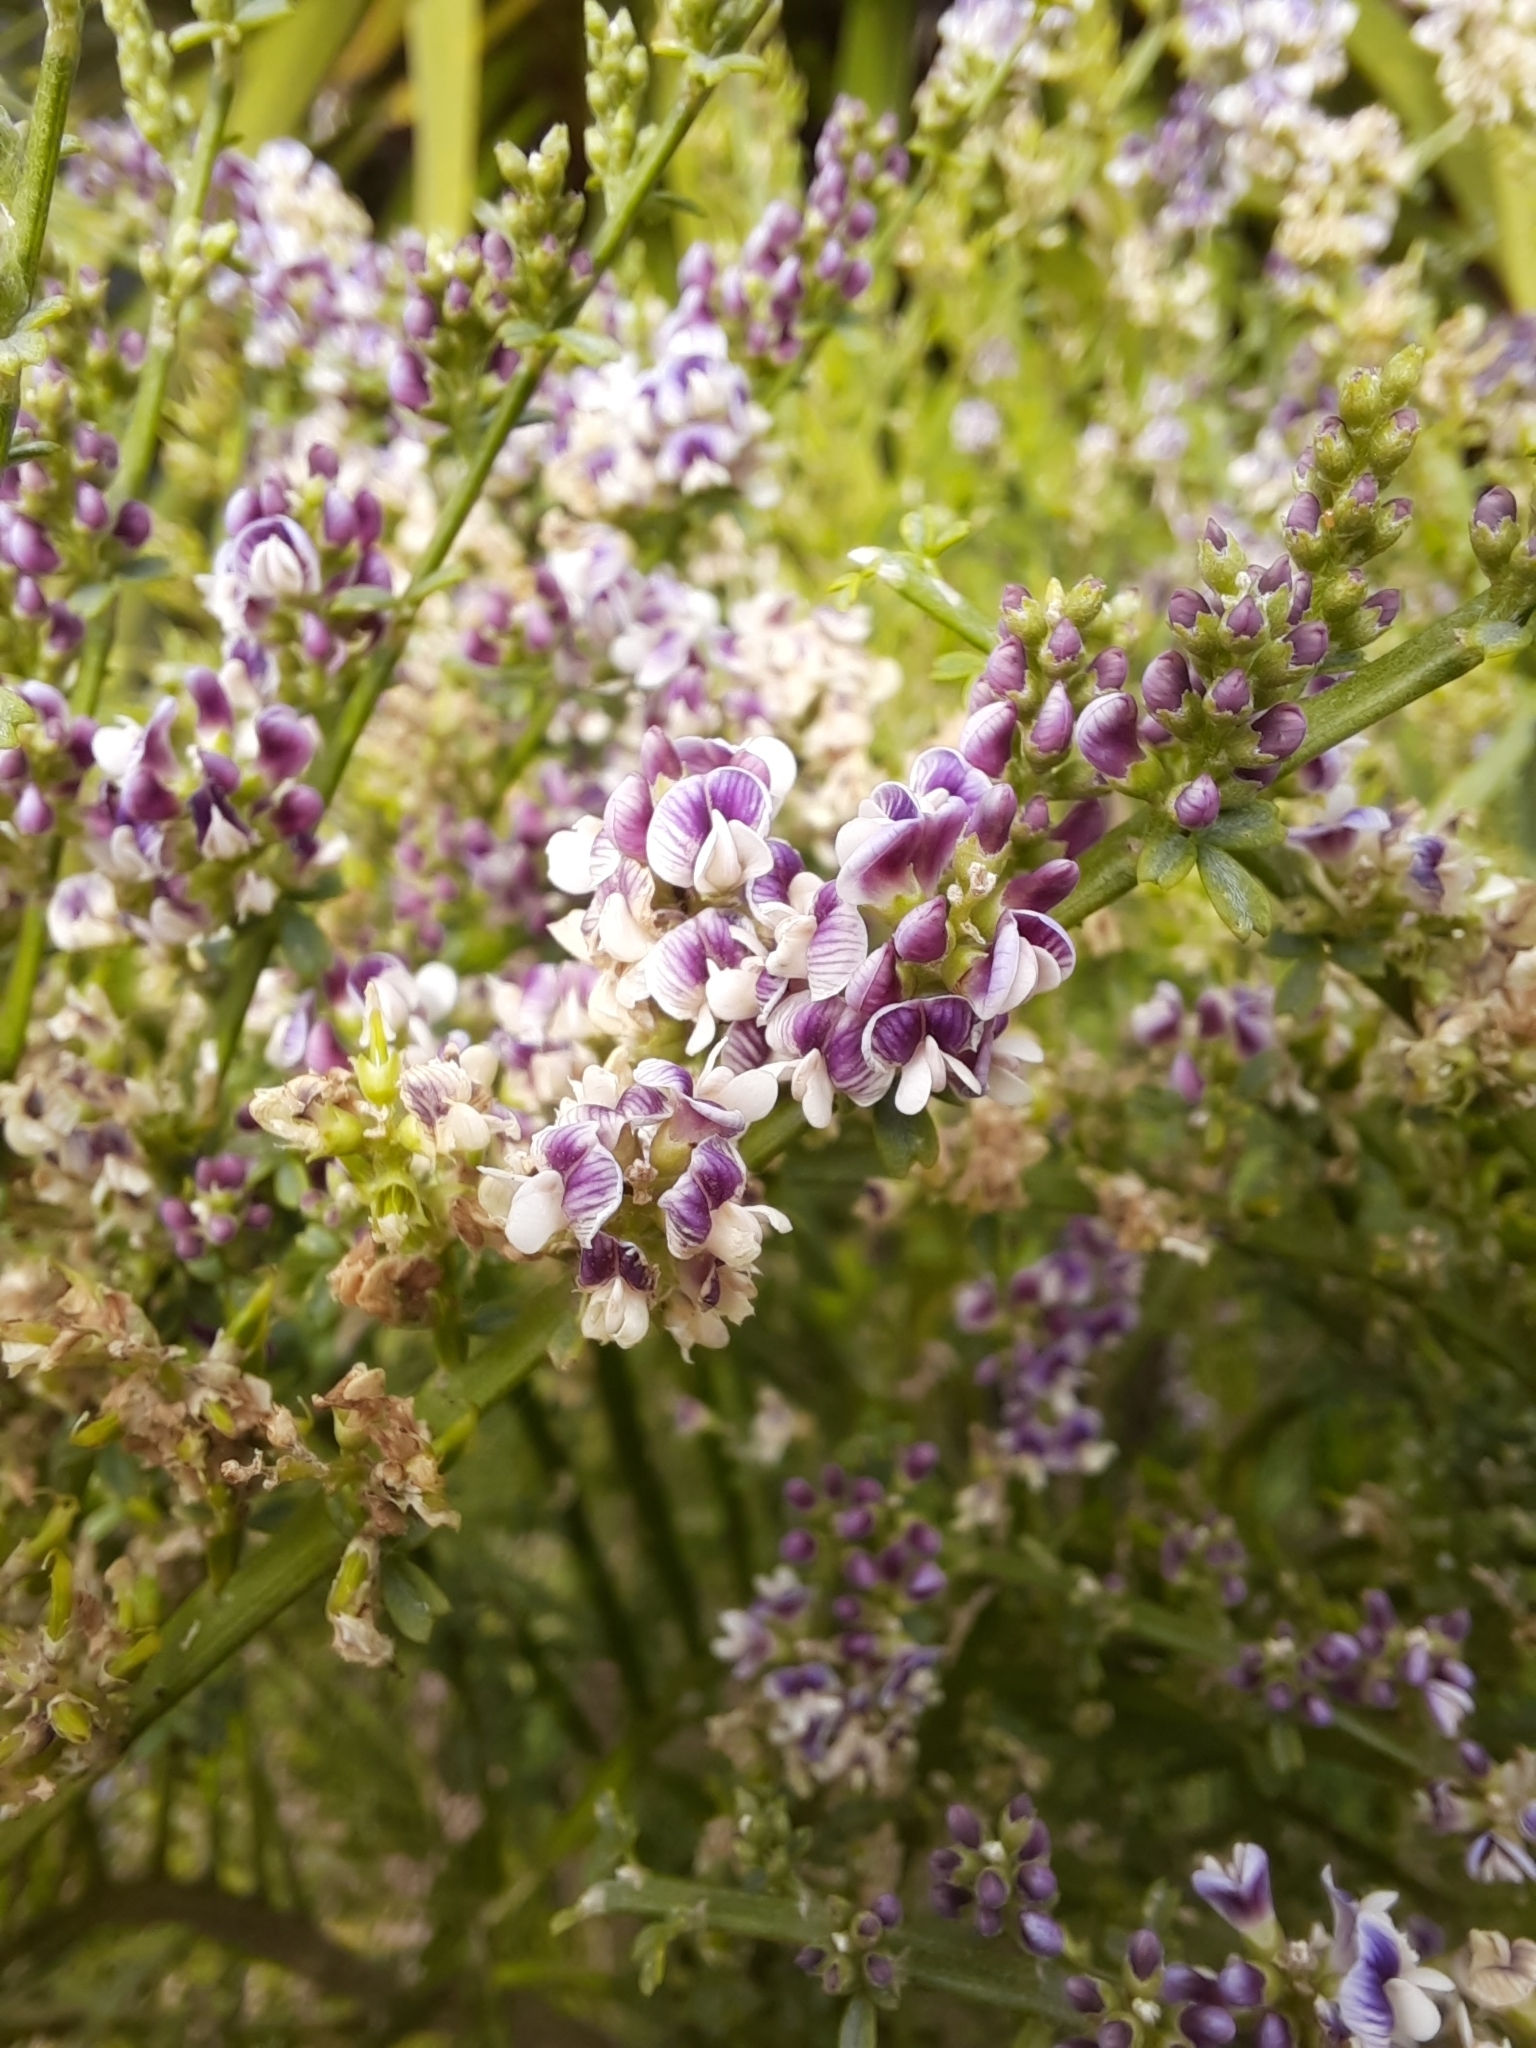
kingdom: Plantae
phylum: Tracheophyta
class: Magnoliopsida
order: Fabales
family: Fabaceae
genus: Carmichaelia
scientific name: Carmichaelia australis
